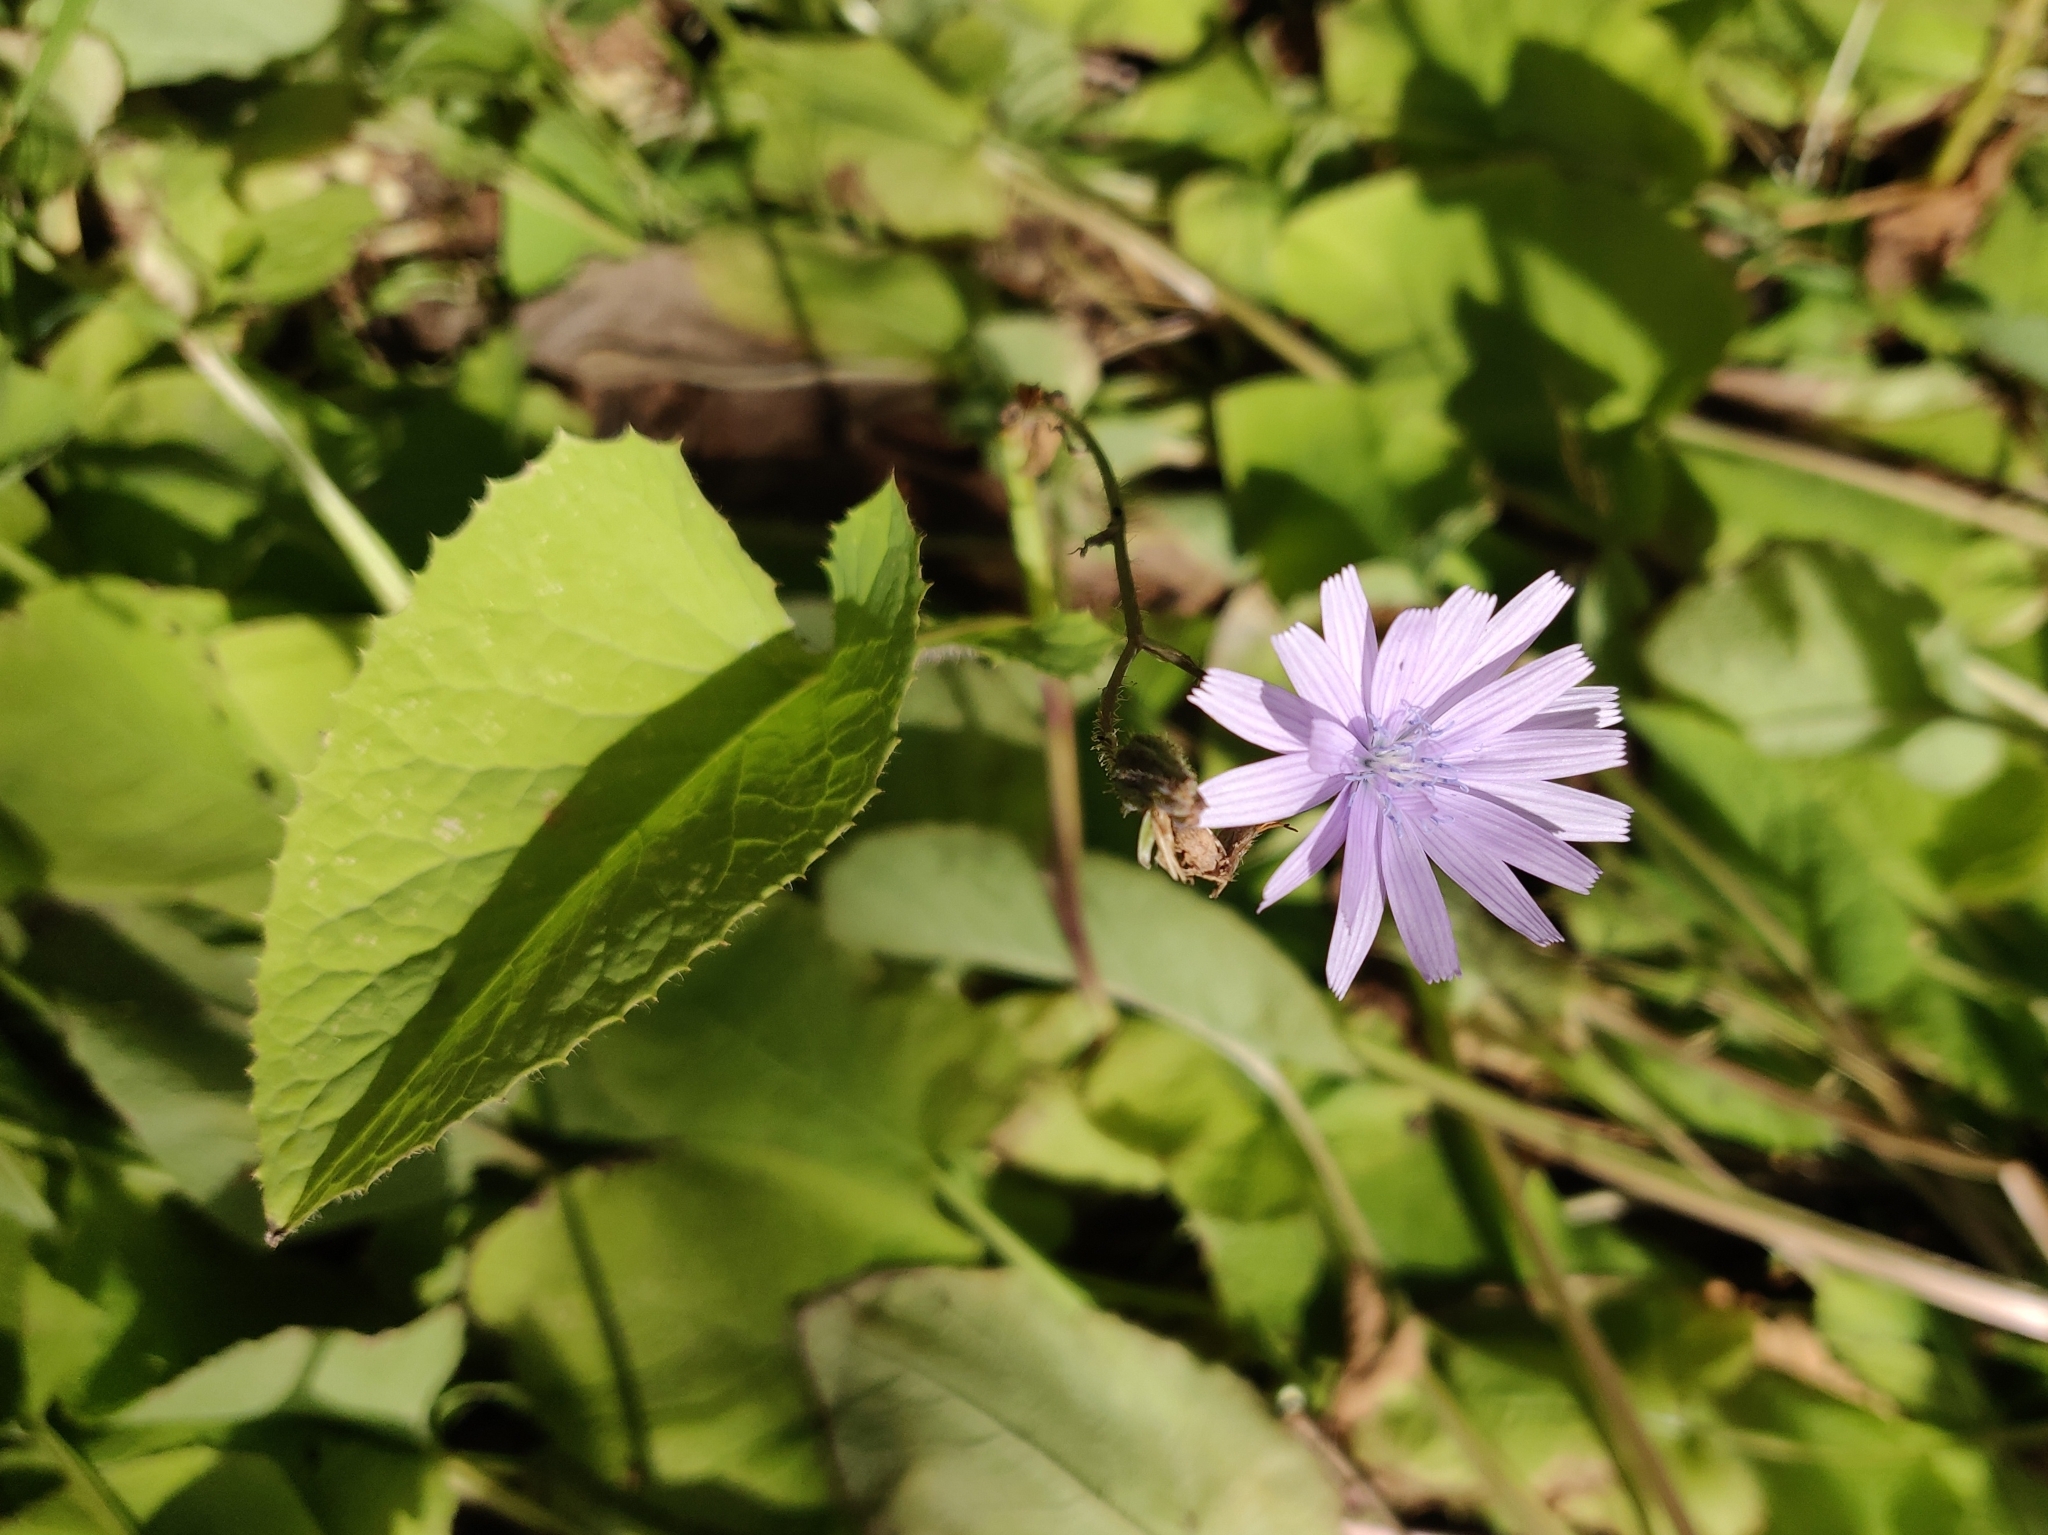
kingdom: Plantae
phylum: Tracheophyta
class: Magnoliopsida
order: Asterales
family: Asteraceae
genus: Lactuca
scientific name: Lactuca macrophylla
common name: Common blue-sow-thistle
